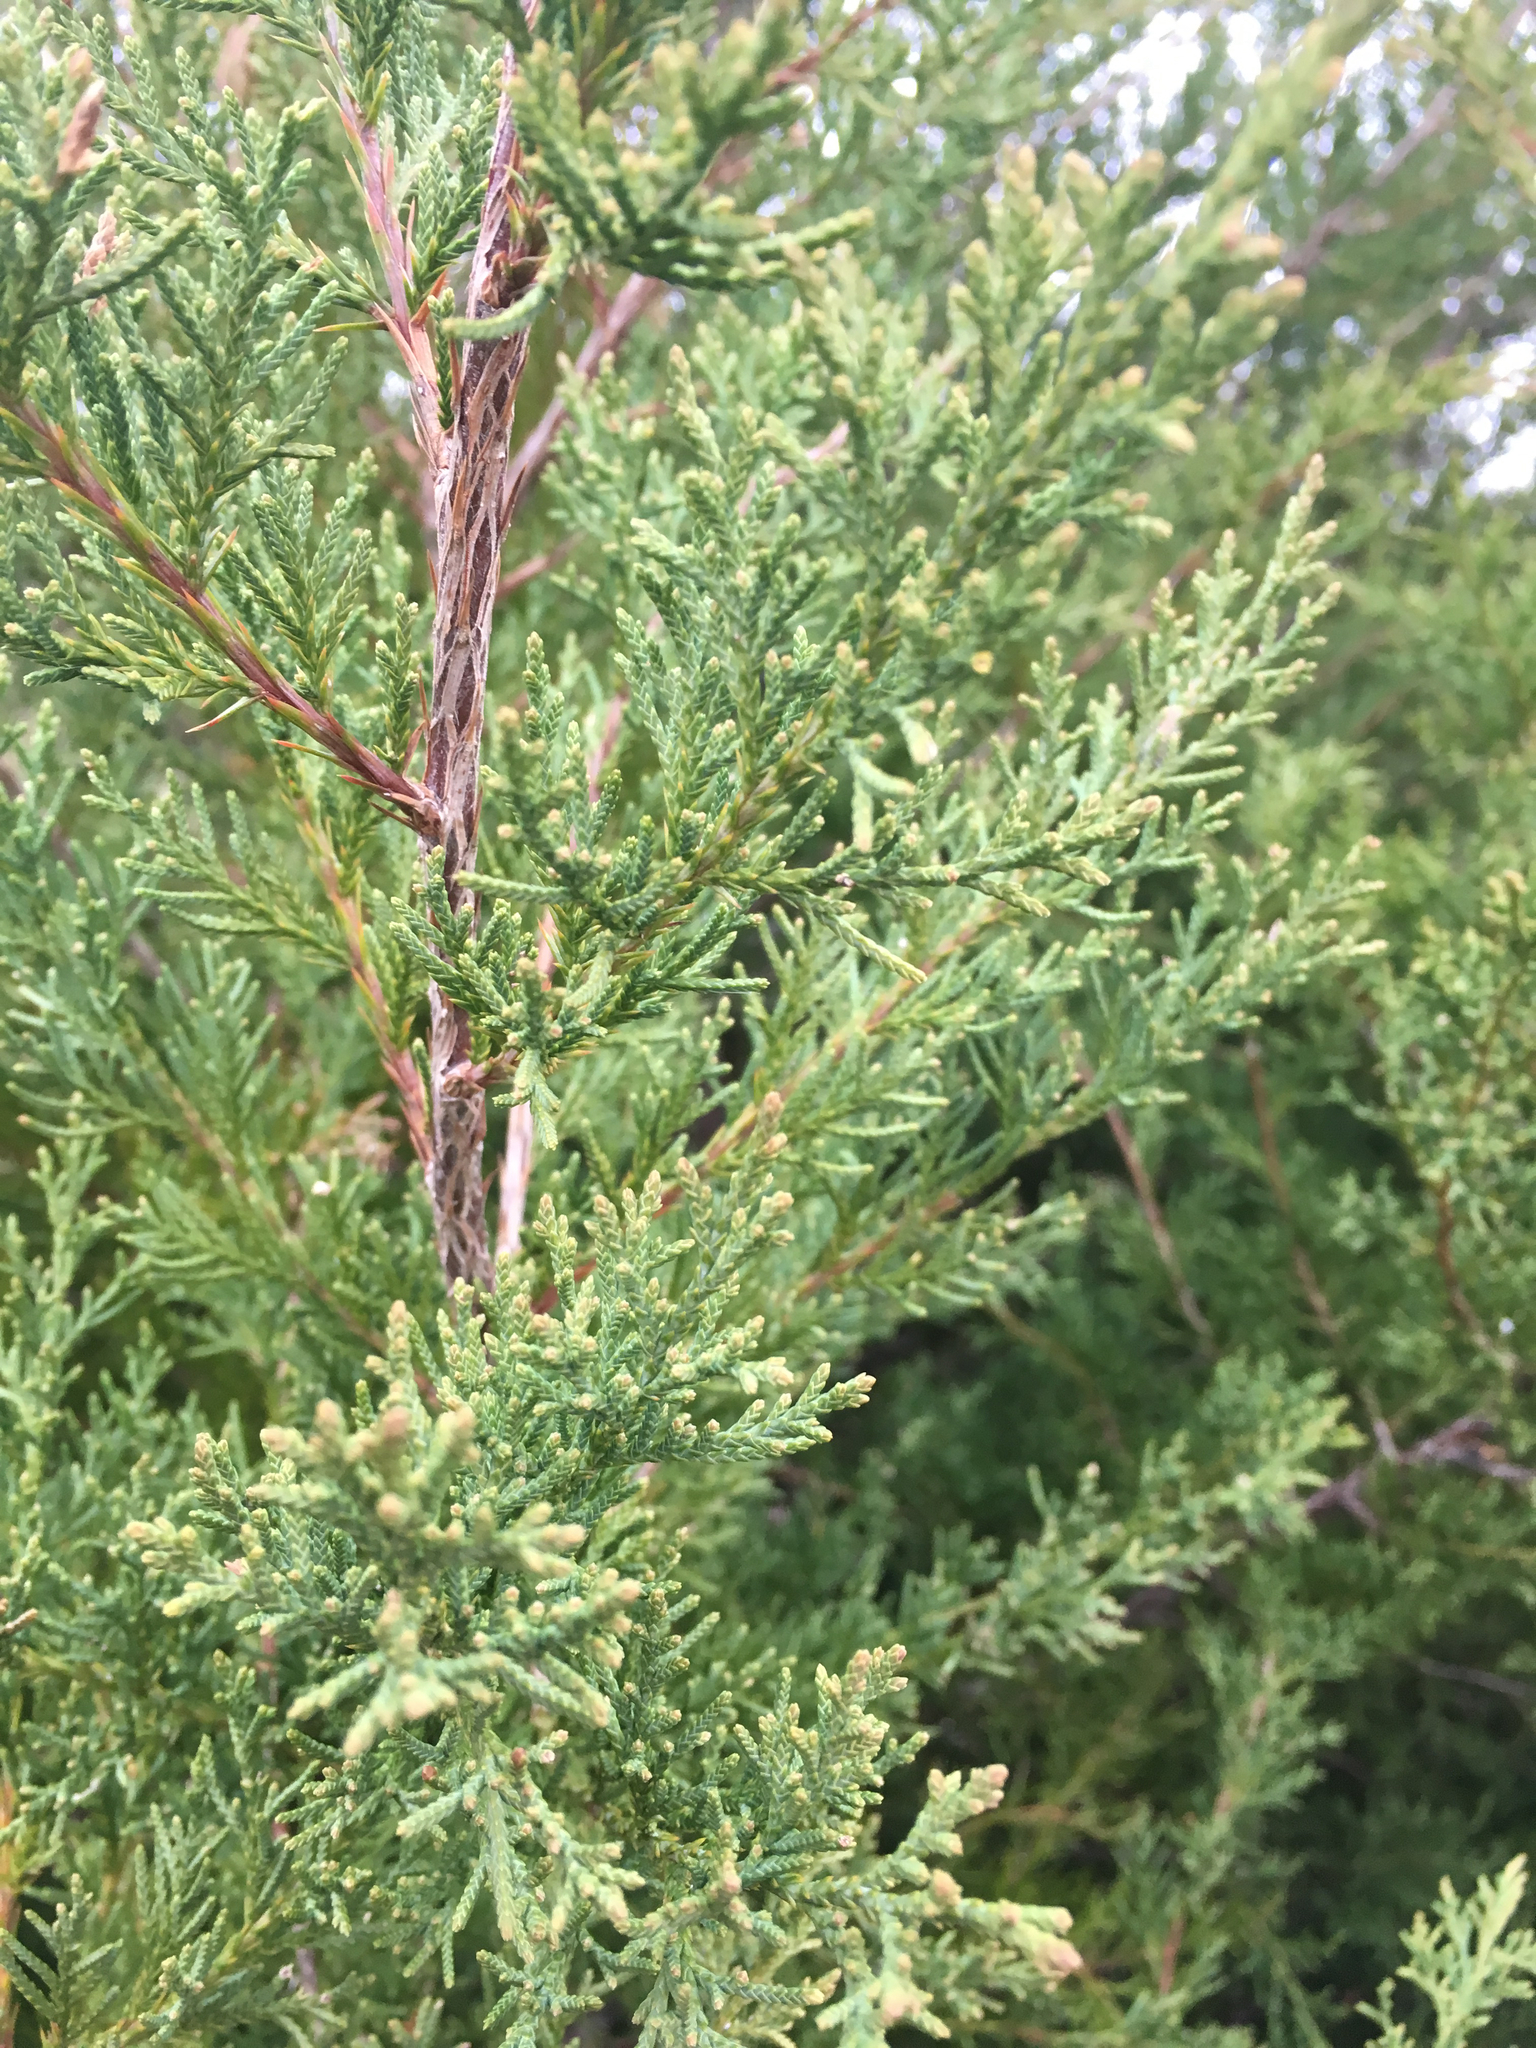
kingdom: Plantae
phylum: Tracheophyta
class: Pinopsida
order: Pinales
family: Cupressaceae
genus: Juniperus
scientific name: Juniperus virginiana
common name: Red juniper
